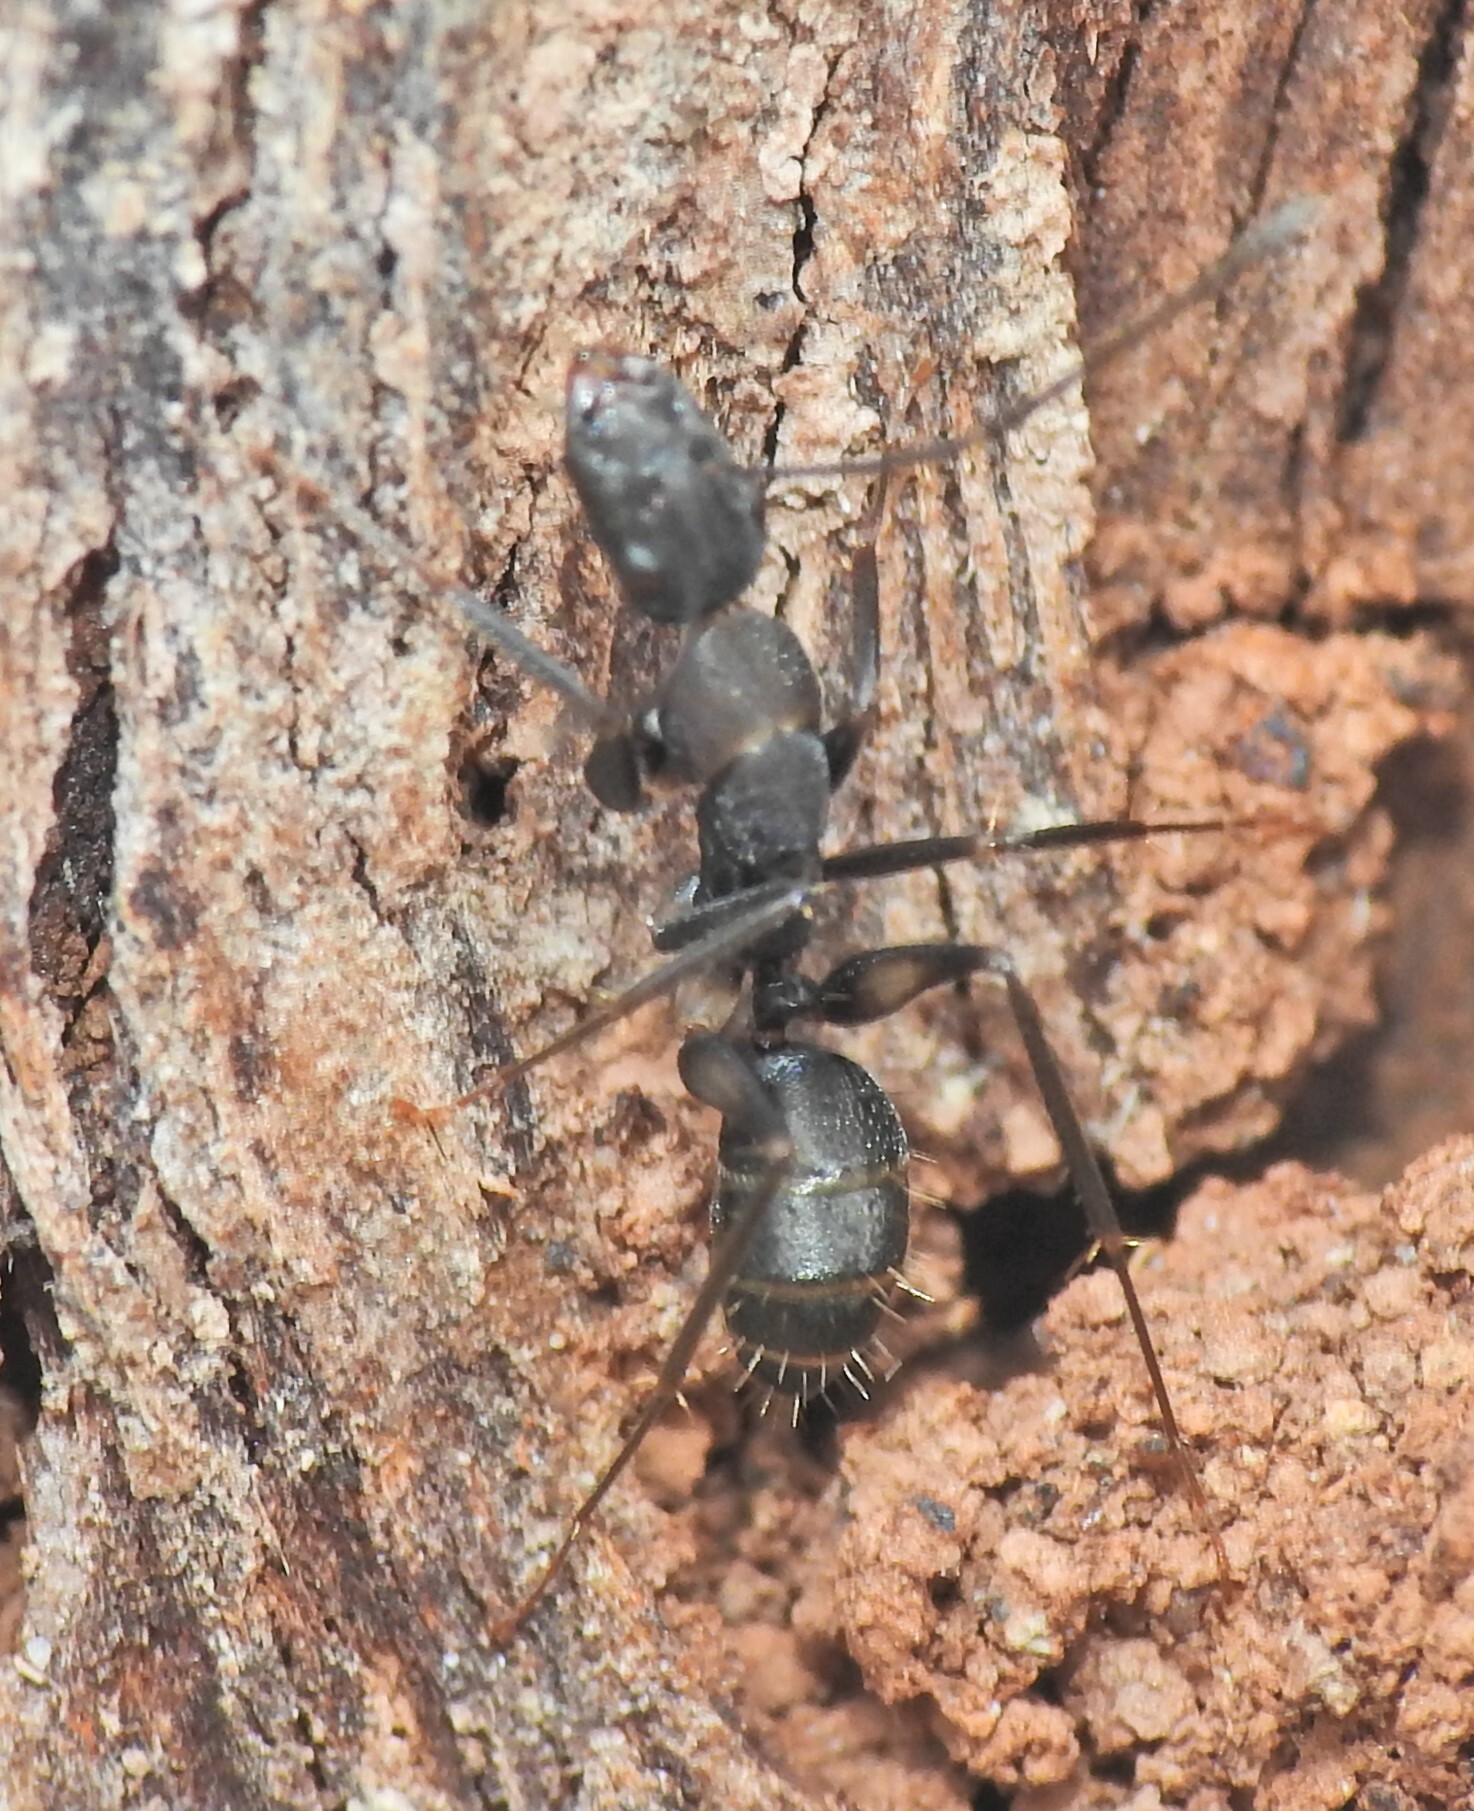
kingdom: Animalia
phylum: Arthropoda
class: Insecta
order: Hymenoptera
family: Formicidae
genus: Camponotus
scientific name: Camponotus lividicoxis
